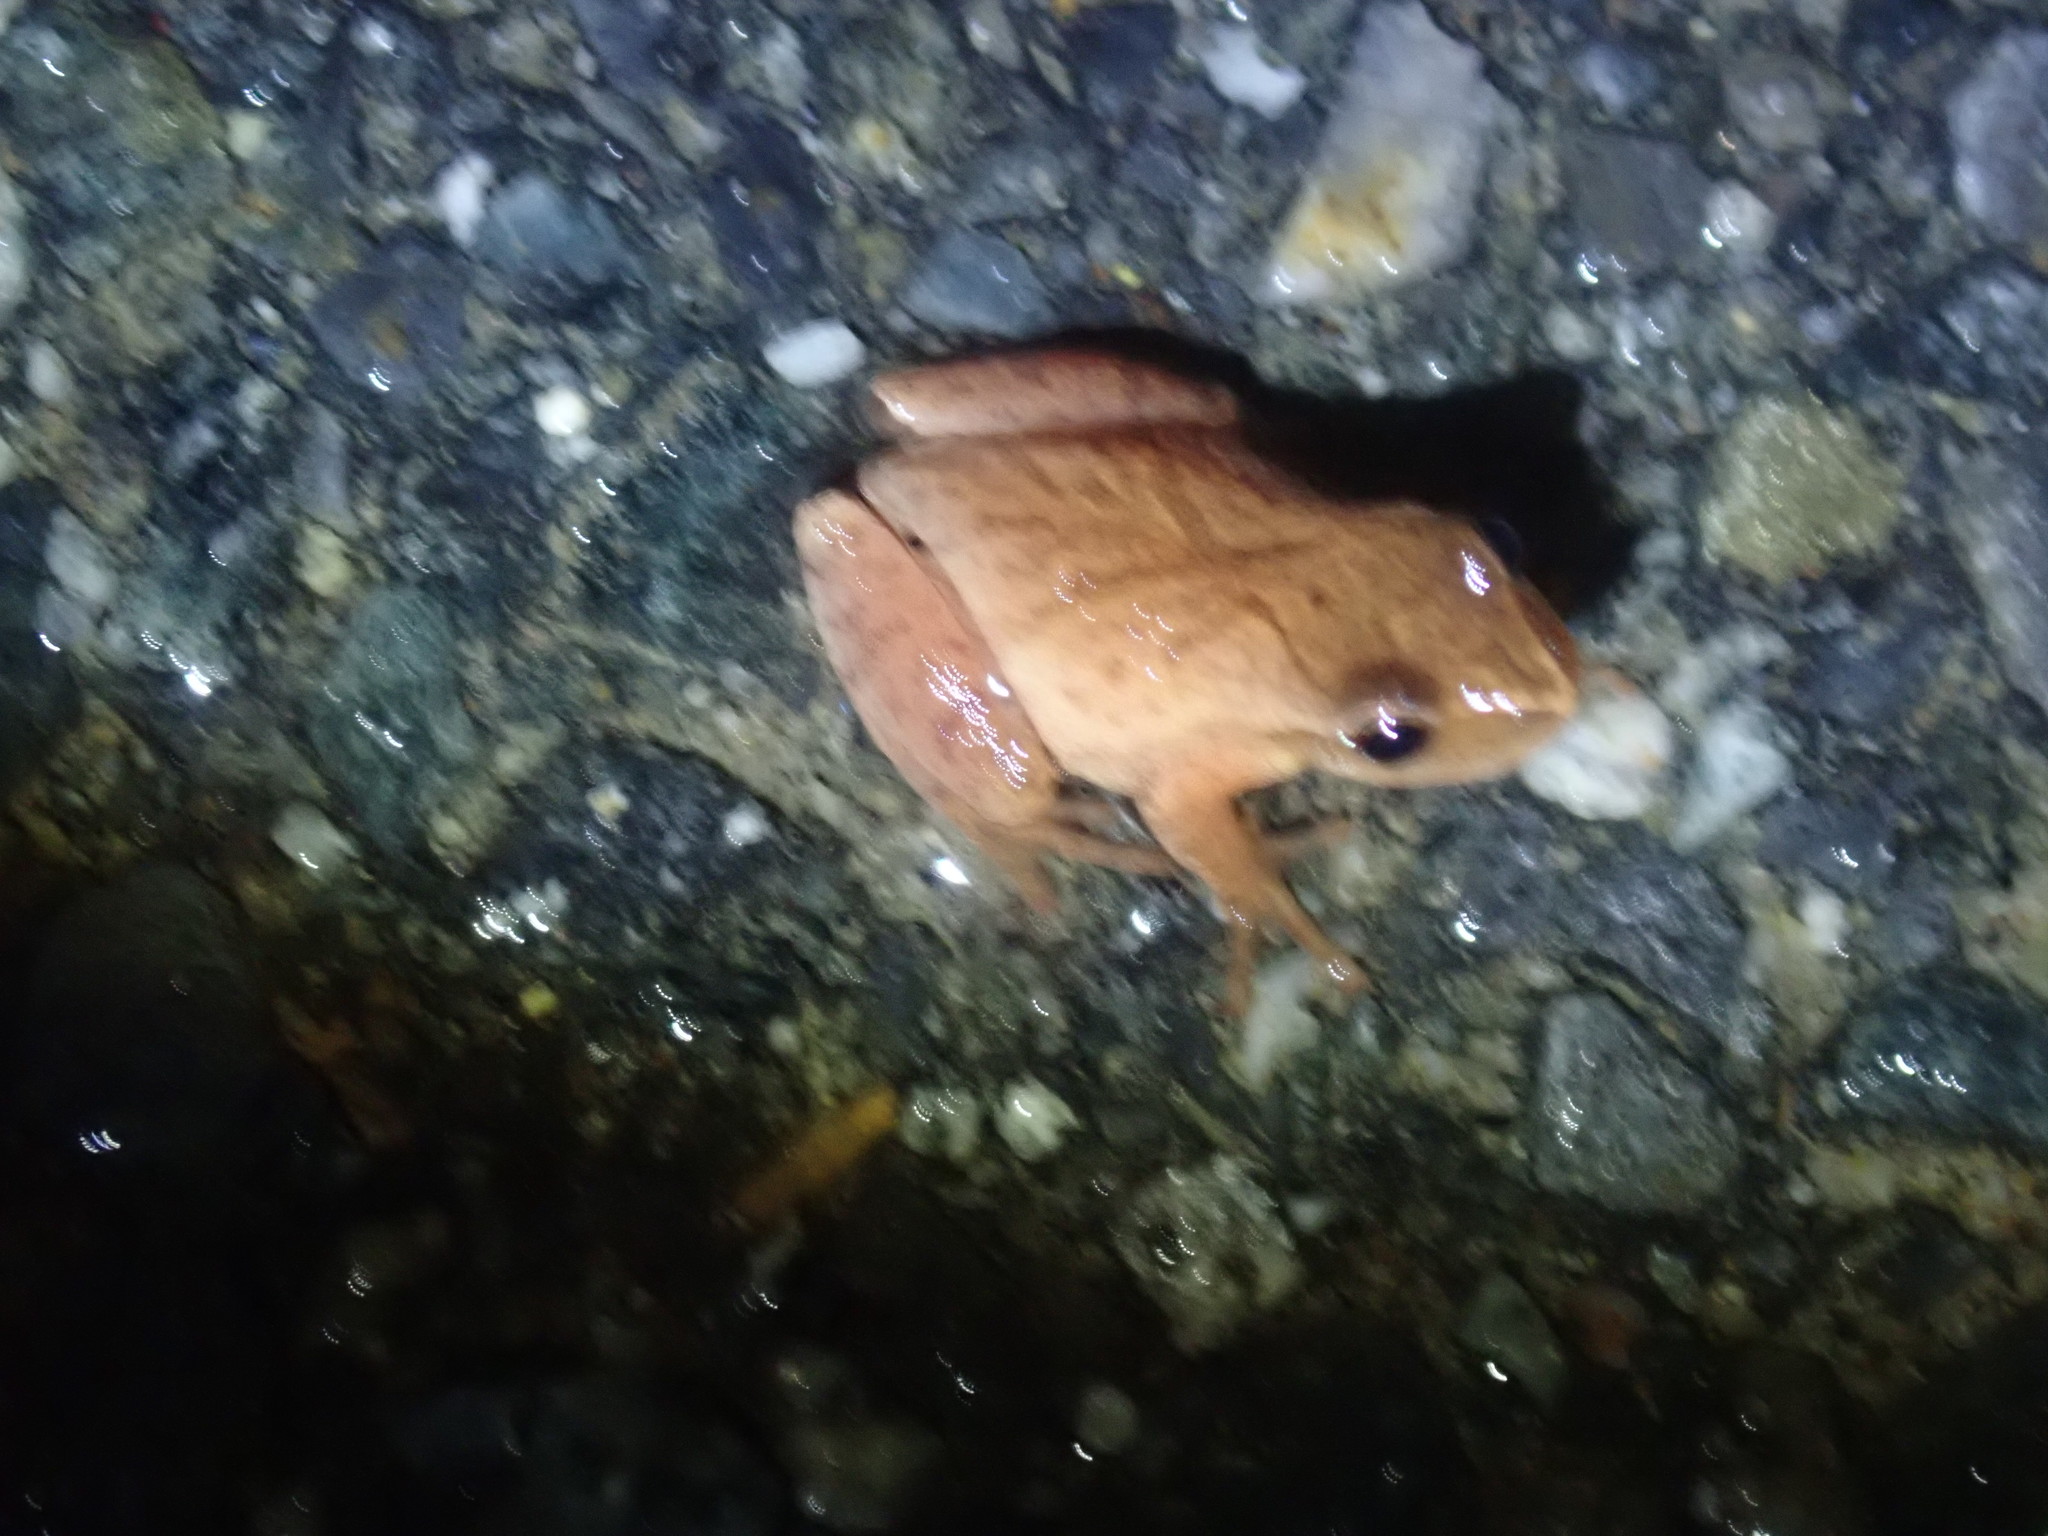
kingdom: Animalia
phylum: Chordata
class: Amphibia
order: Anura
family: Hylidae
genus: Pseudacris
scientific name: Pseudacris crucifer
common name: Spring peeper
